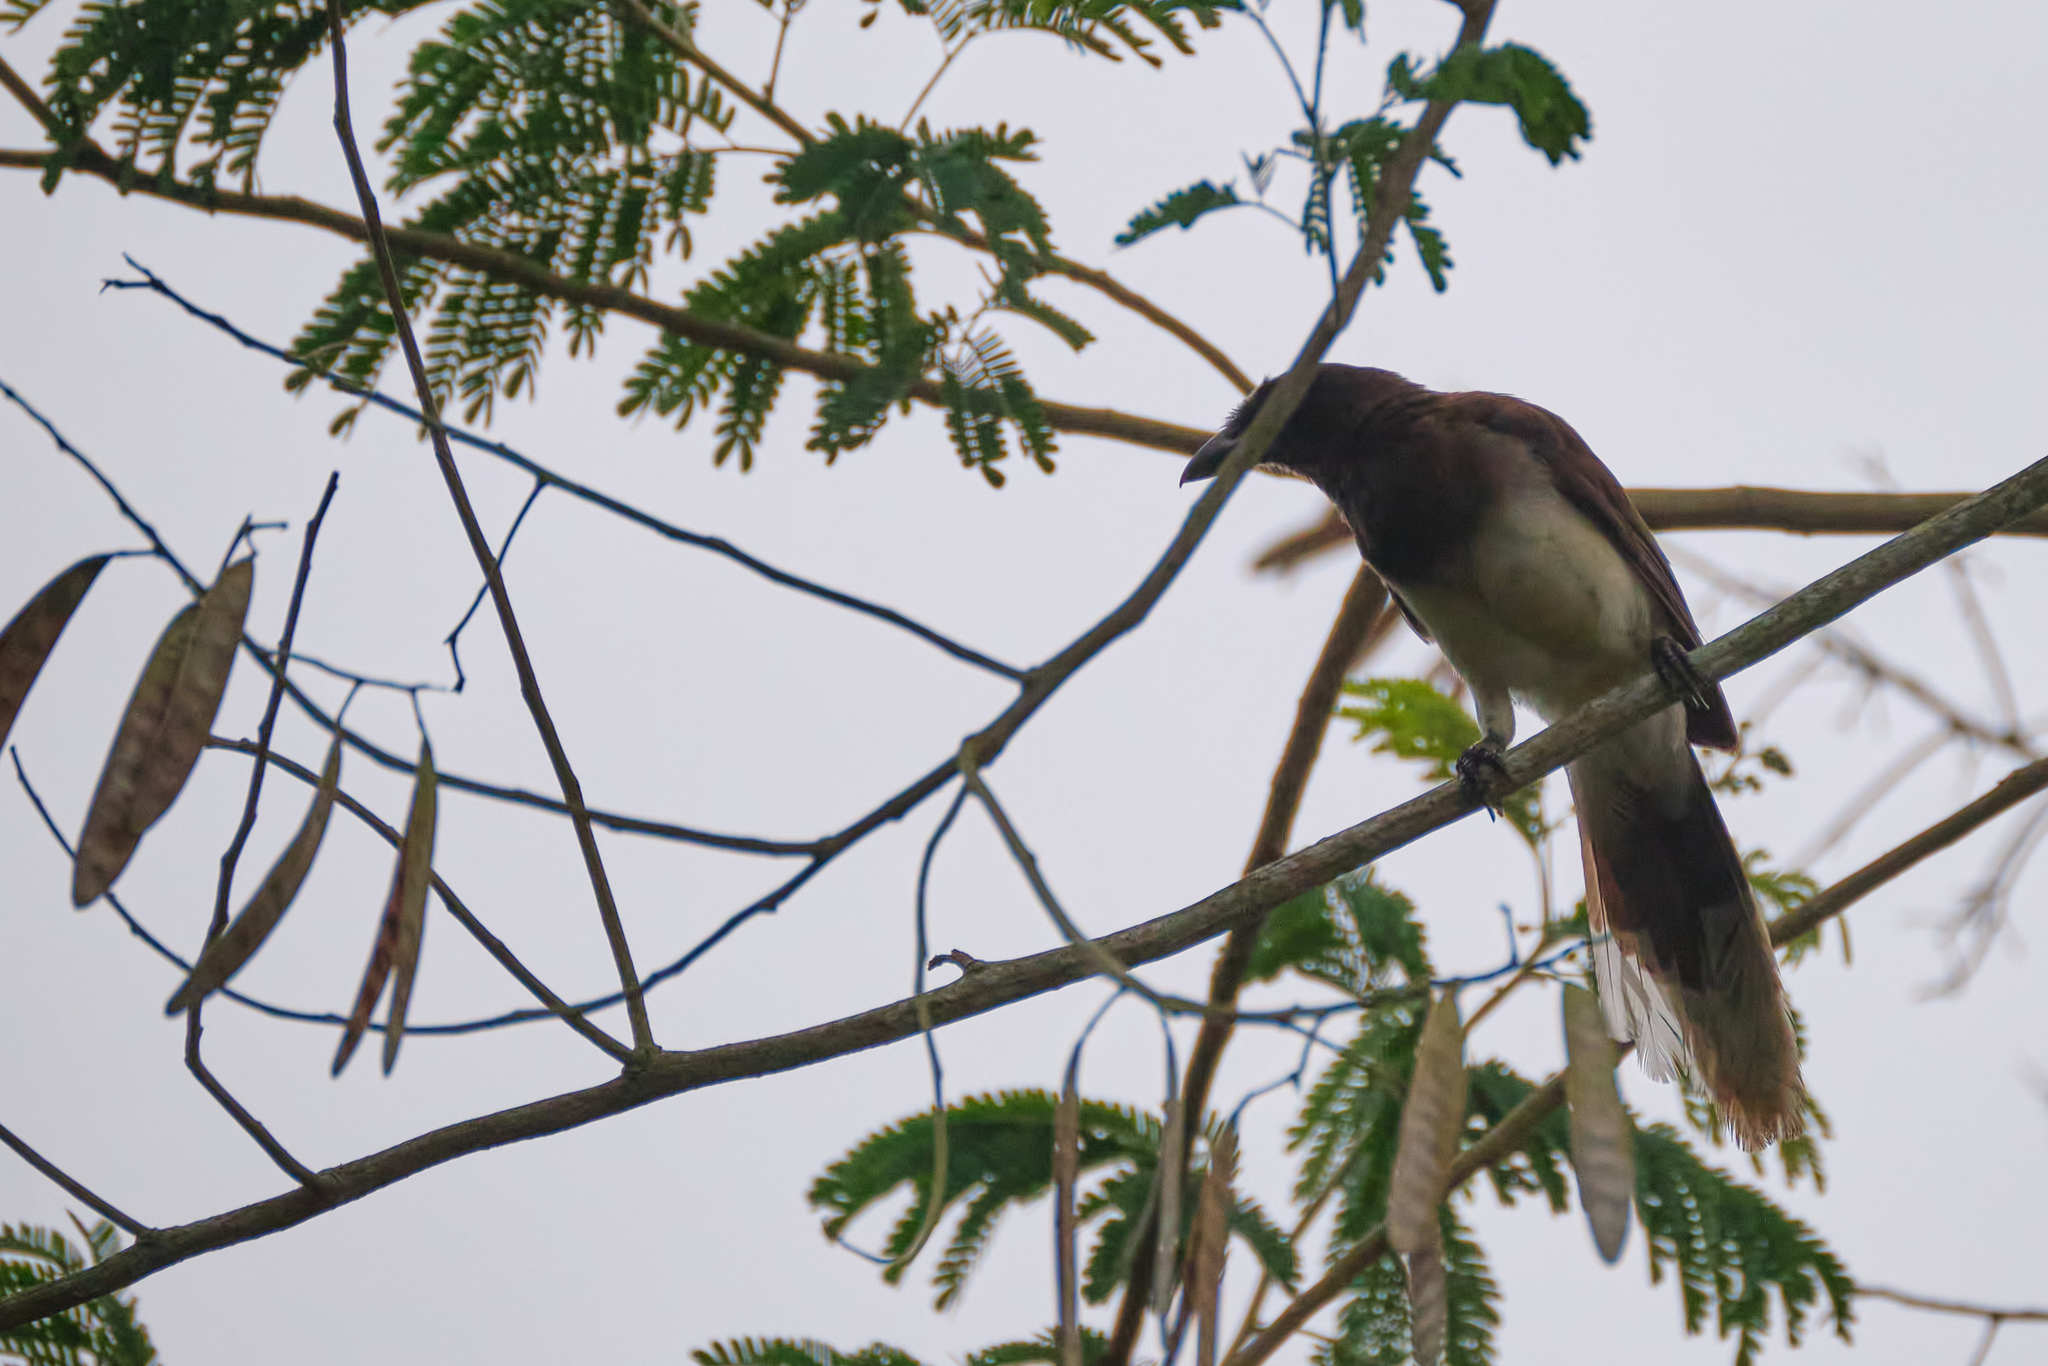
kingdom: Animalia
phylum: Chordata
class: Aves
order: Passeriformes
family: Corvidae
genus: Psilorhinus
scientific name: Psilorhinus morio
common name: Brown jay
